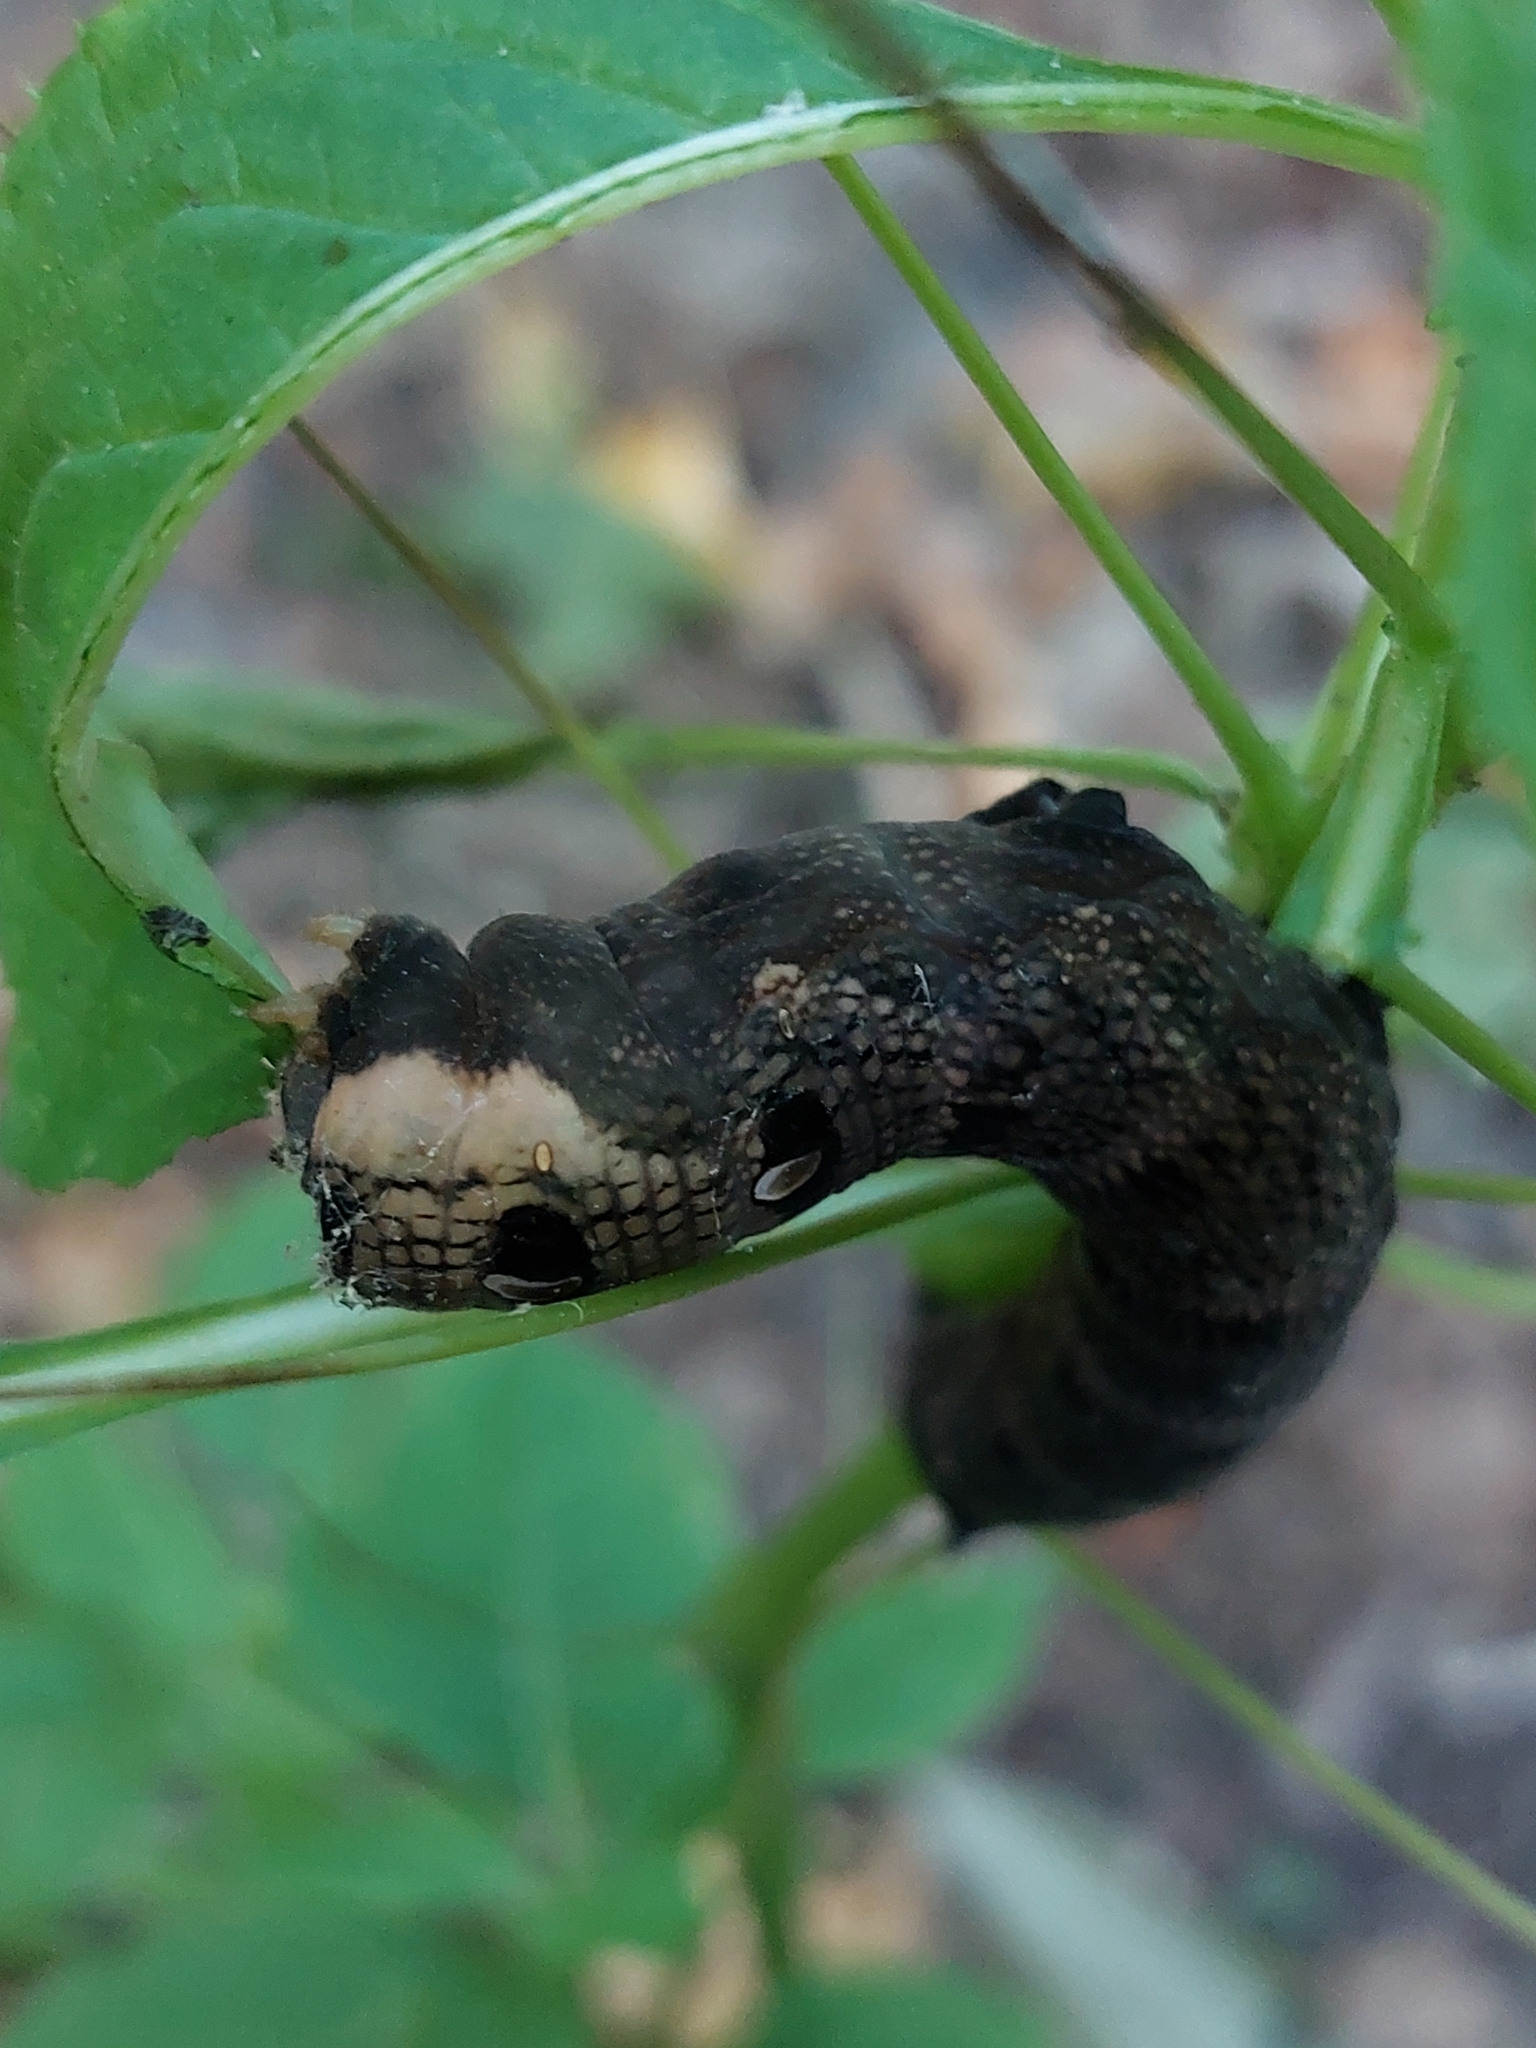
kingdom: Animalia
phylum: Arthropoda
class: Insecta
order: Lepidoptera
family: Sphingidae
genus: Deilephila
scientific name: Deilephila elpenor
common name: Elephant hawk-moth
